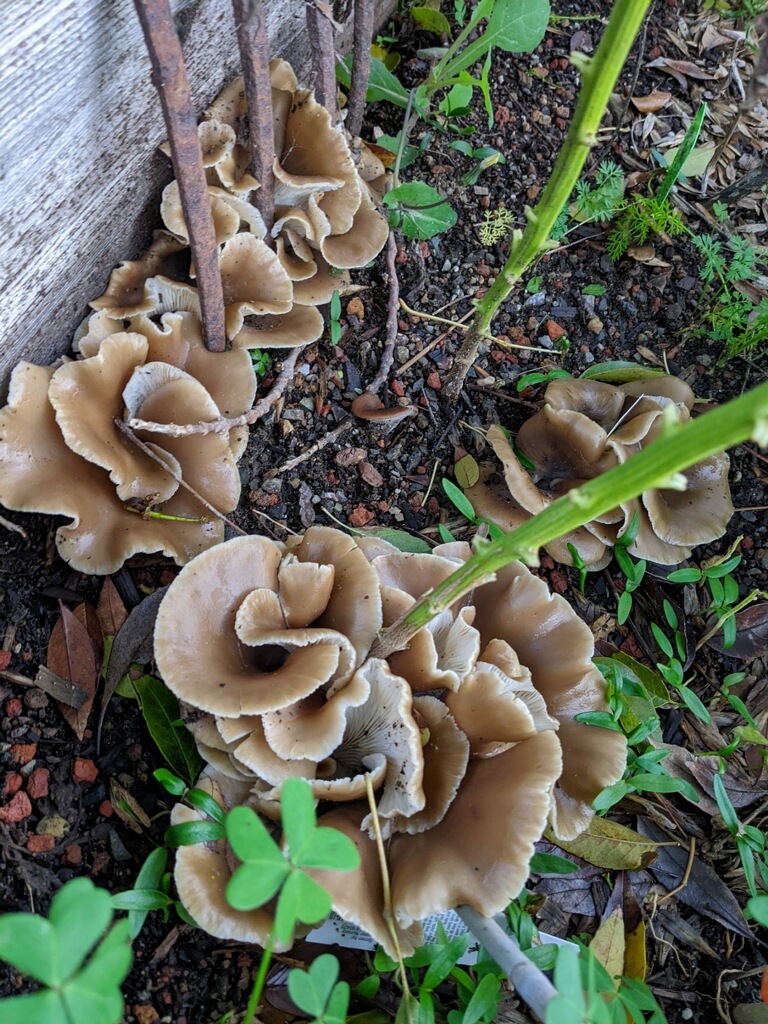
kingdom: Fungi
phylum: Basidiomycota
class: Agaricomycetes
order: Agaricales
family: Pleurotaceae
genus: Hohenbuehelia
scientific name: Hohenbuehelia petaloides
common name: Shoehorn oyster
